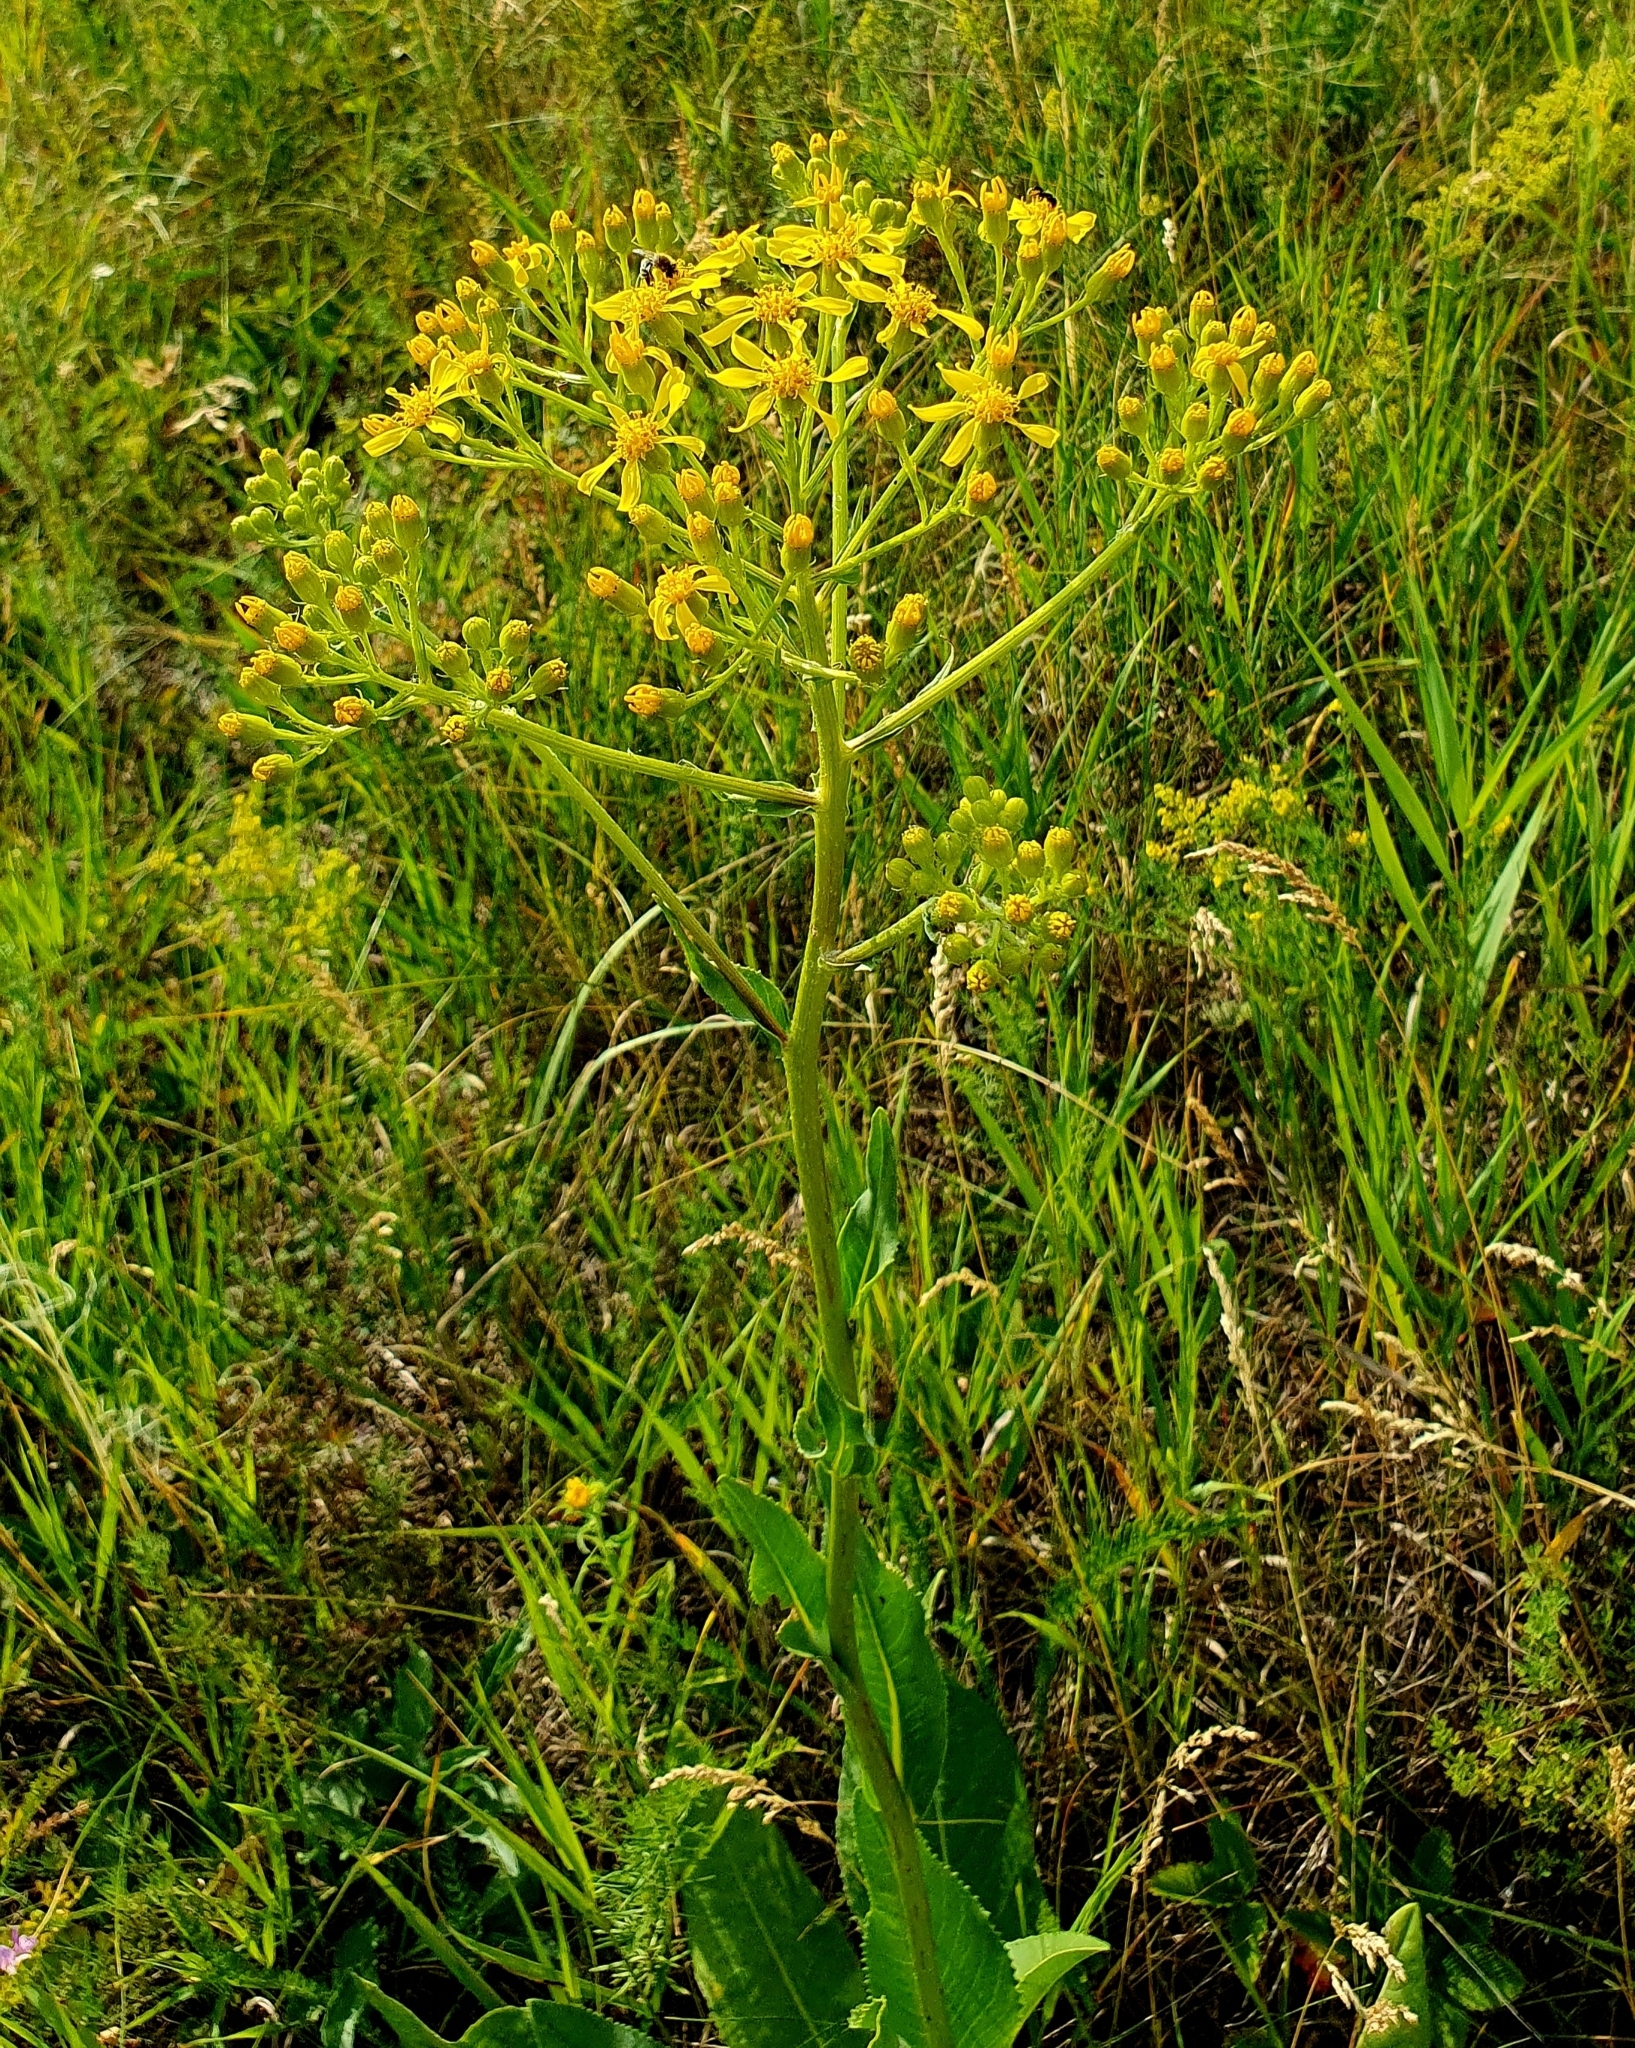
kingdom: Plantae
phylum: Tracheophyta
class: Magnoliopsida
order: Asterales
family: Asteraceae
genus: Senecio
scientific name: Senecio doria
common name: Golden ragwort
